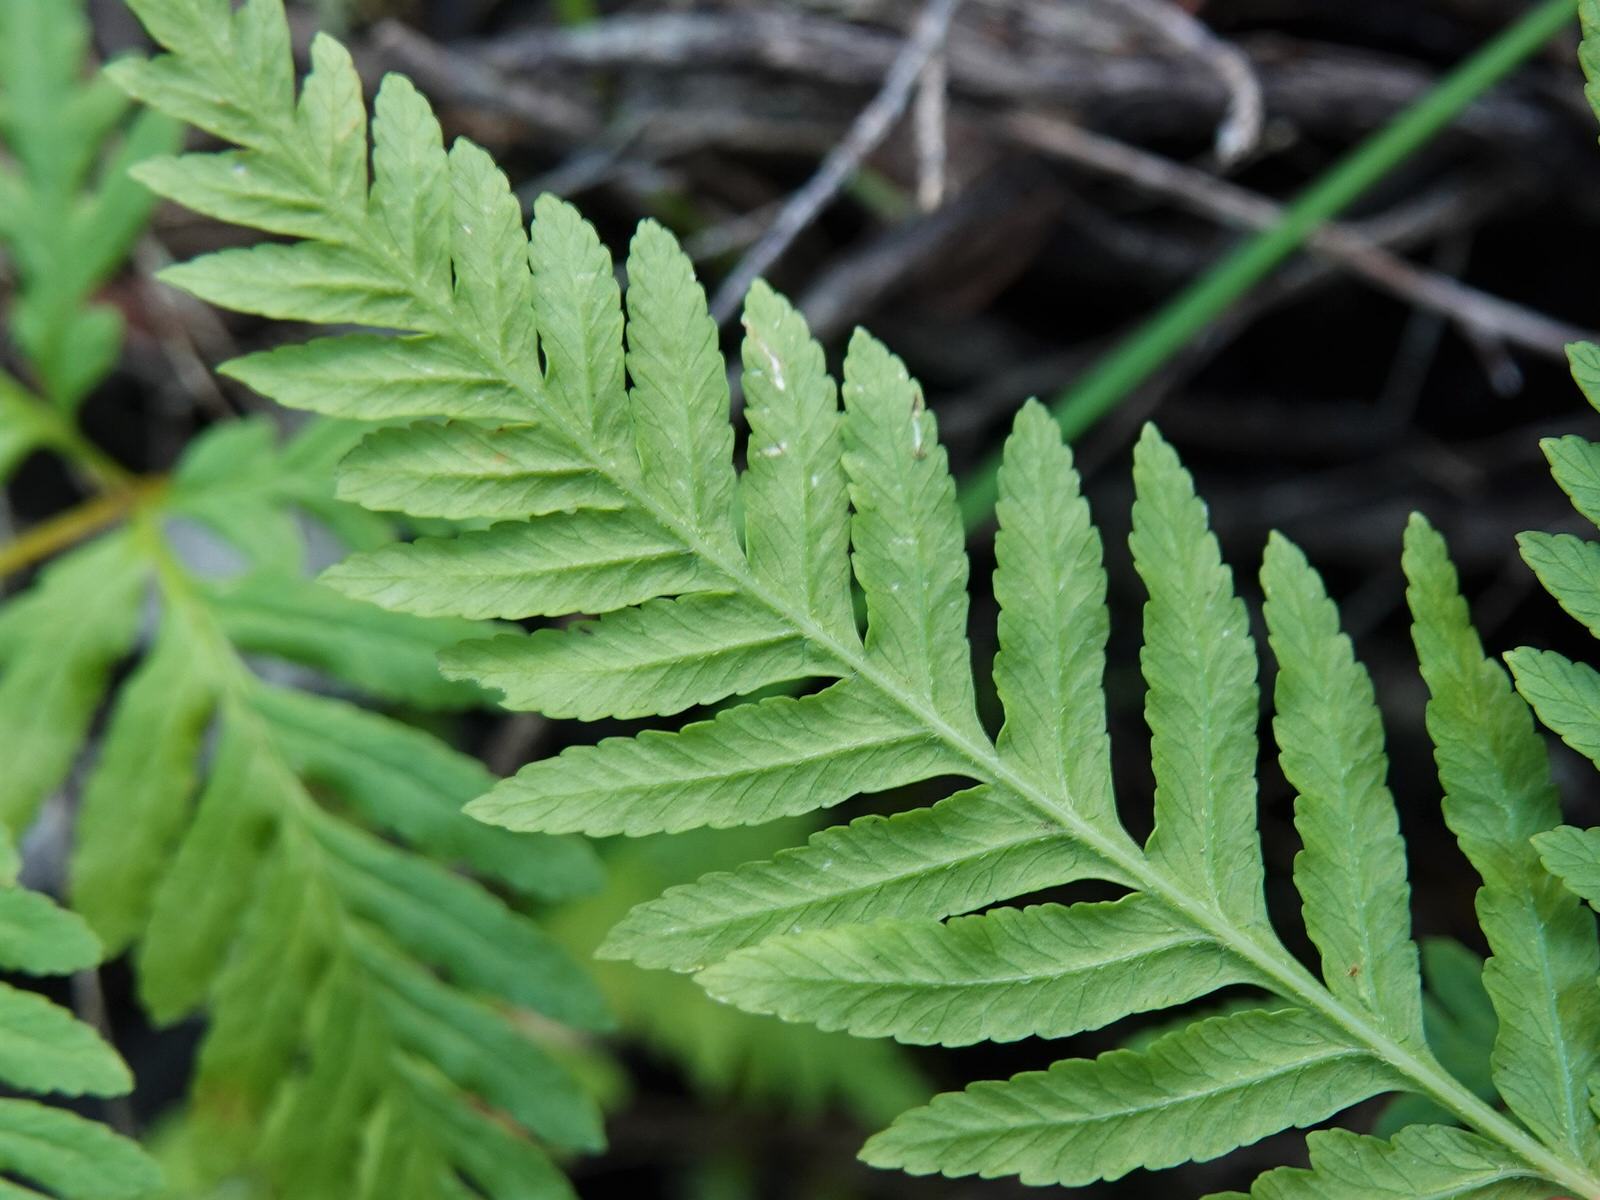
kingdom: Plantae
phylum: Tracheophyta
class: Polypodiopsida
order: Polypodiales
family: Pteridaceae
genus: Pteris
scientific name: Pteris tremula
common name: Australian brake
